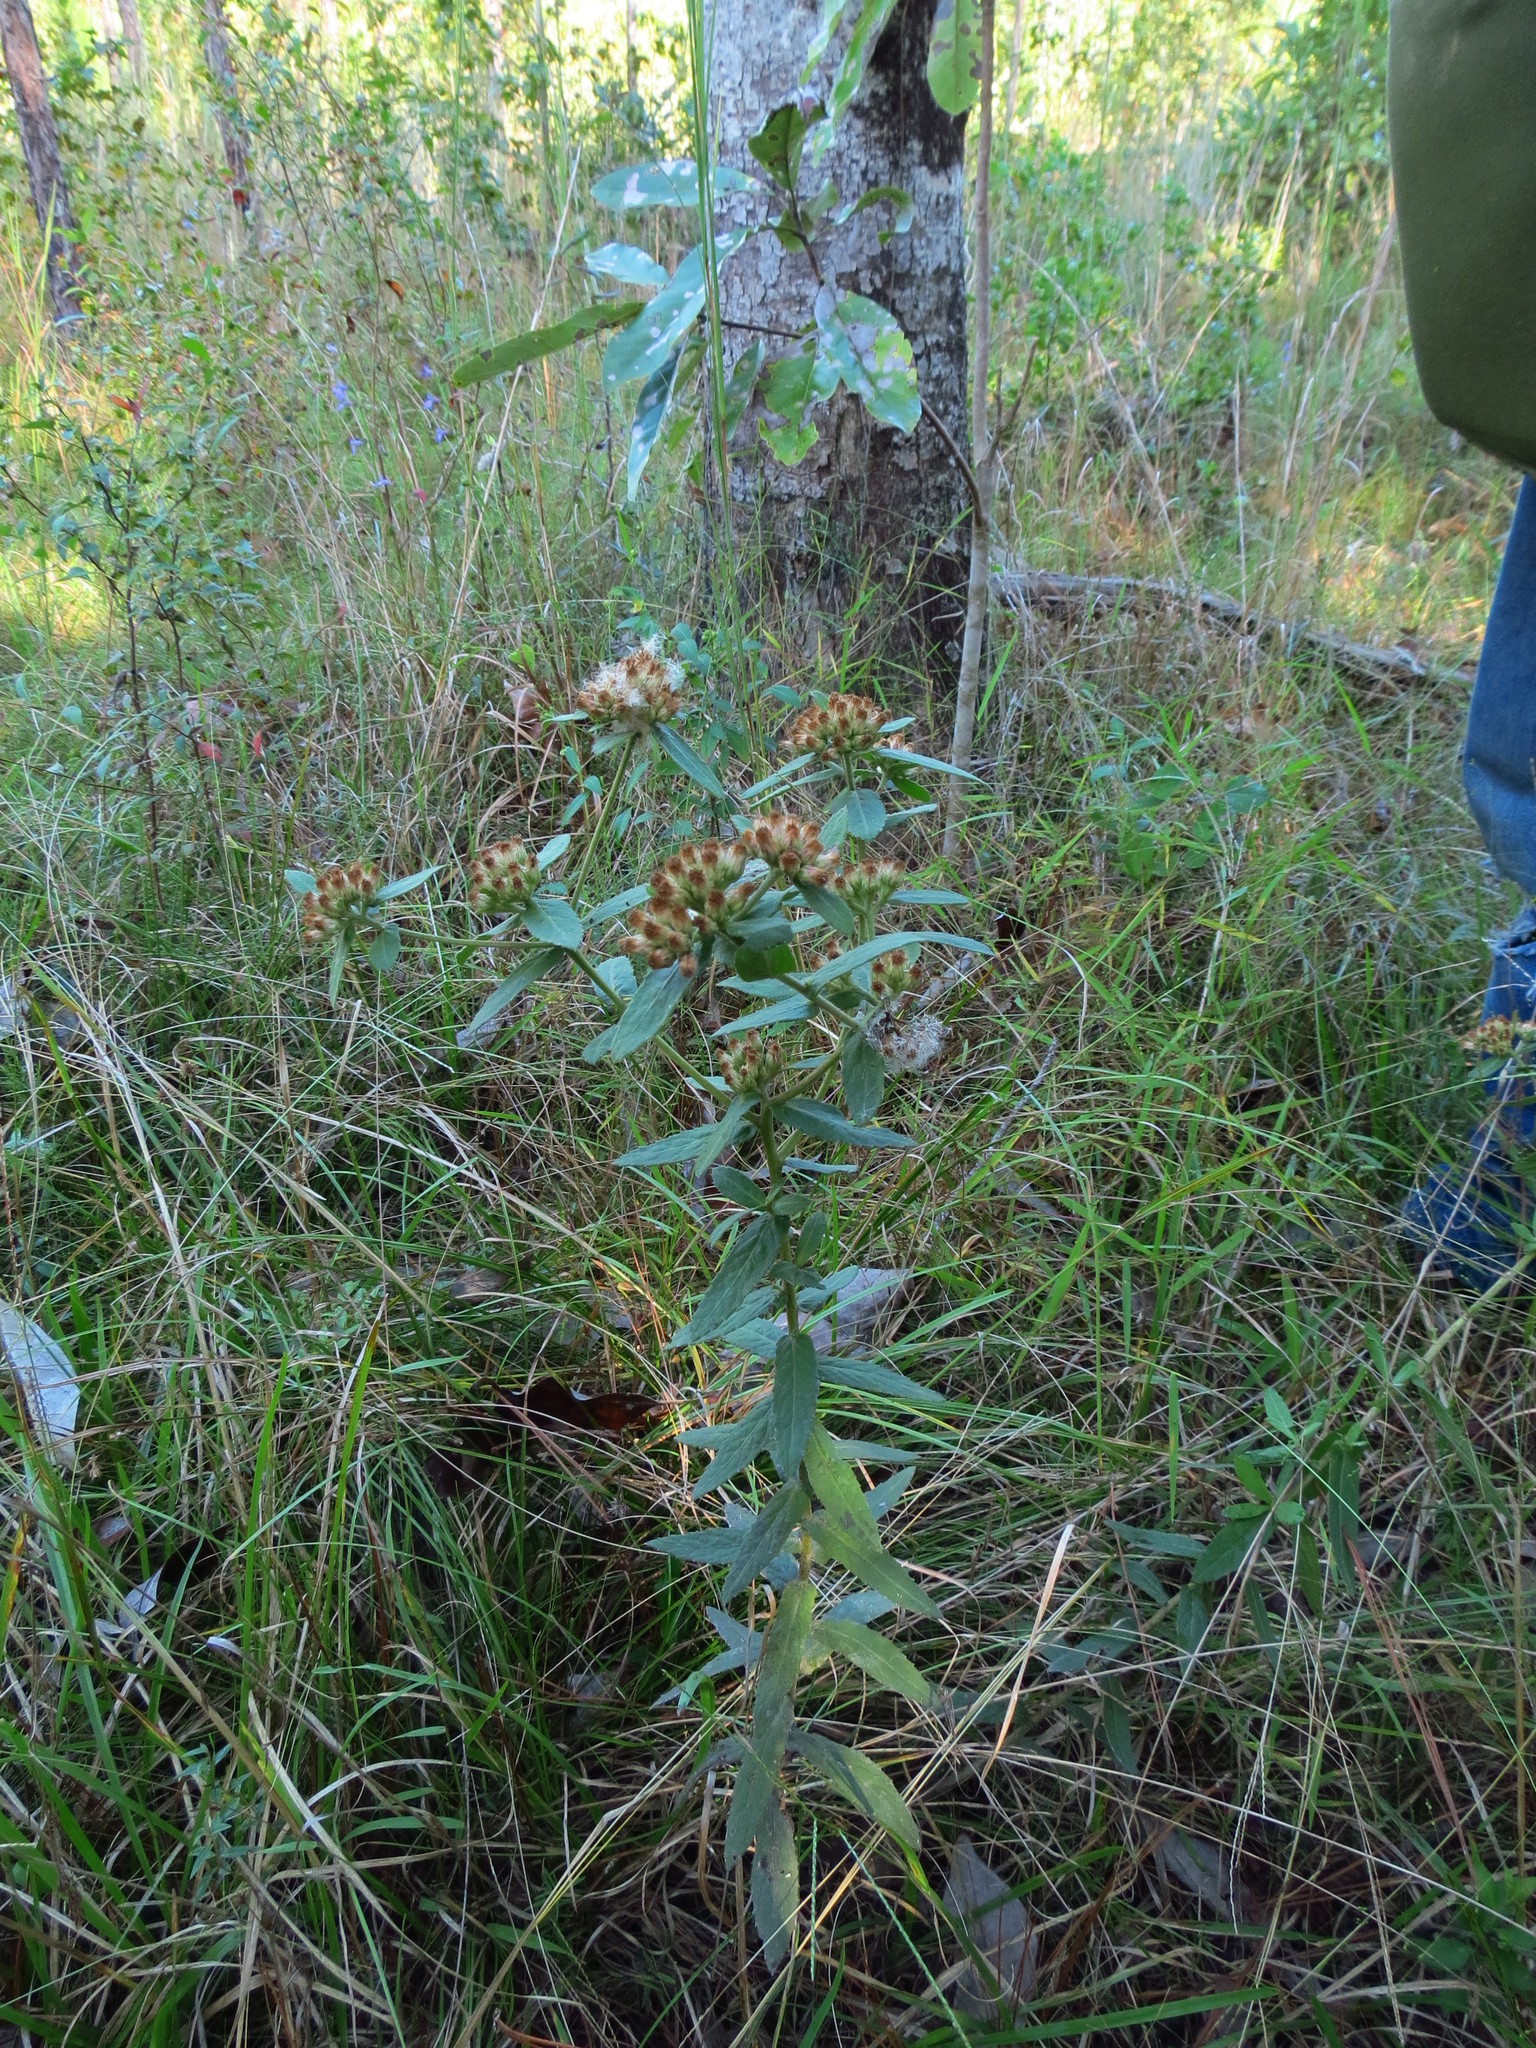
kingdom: Plantae
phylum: Tracheophyta
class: Magnoliopsida
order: Asterales
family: Asteraceae
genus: Pluchea
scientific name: Pluchea foetida
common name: Stinking camphorweed
